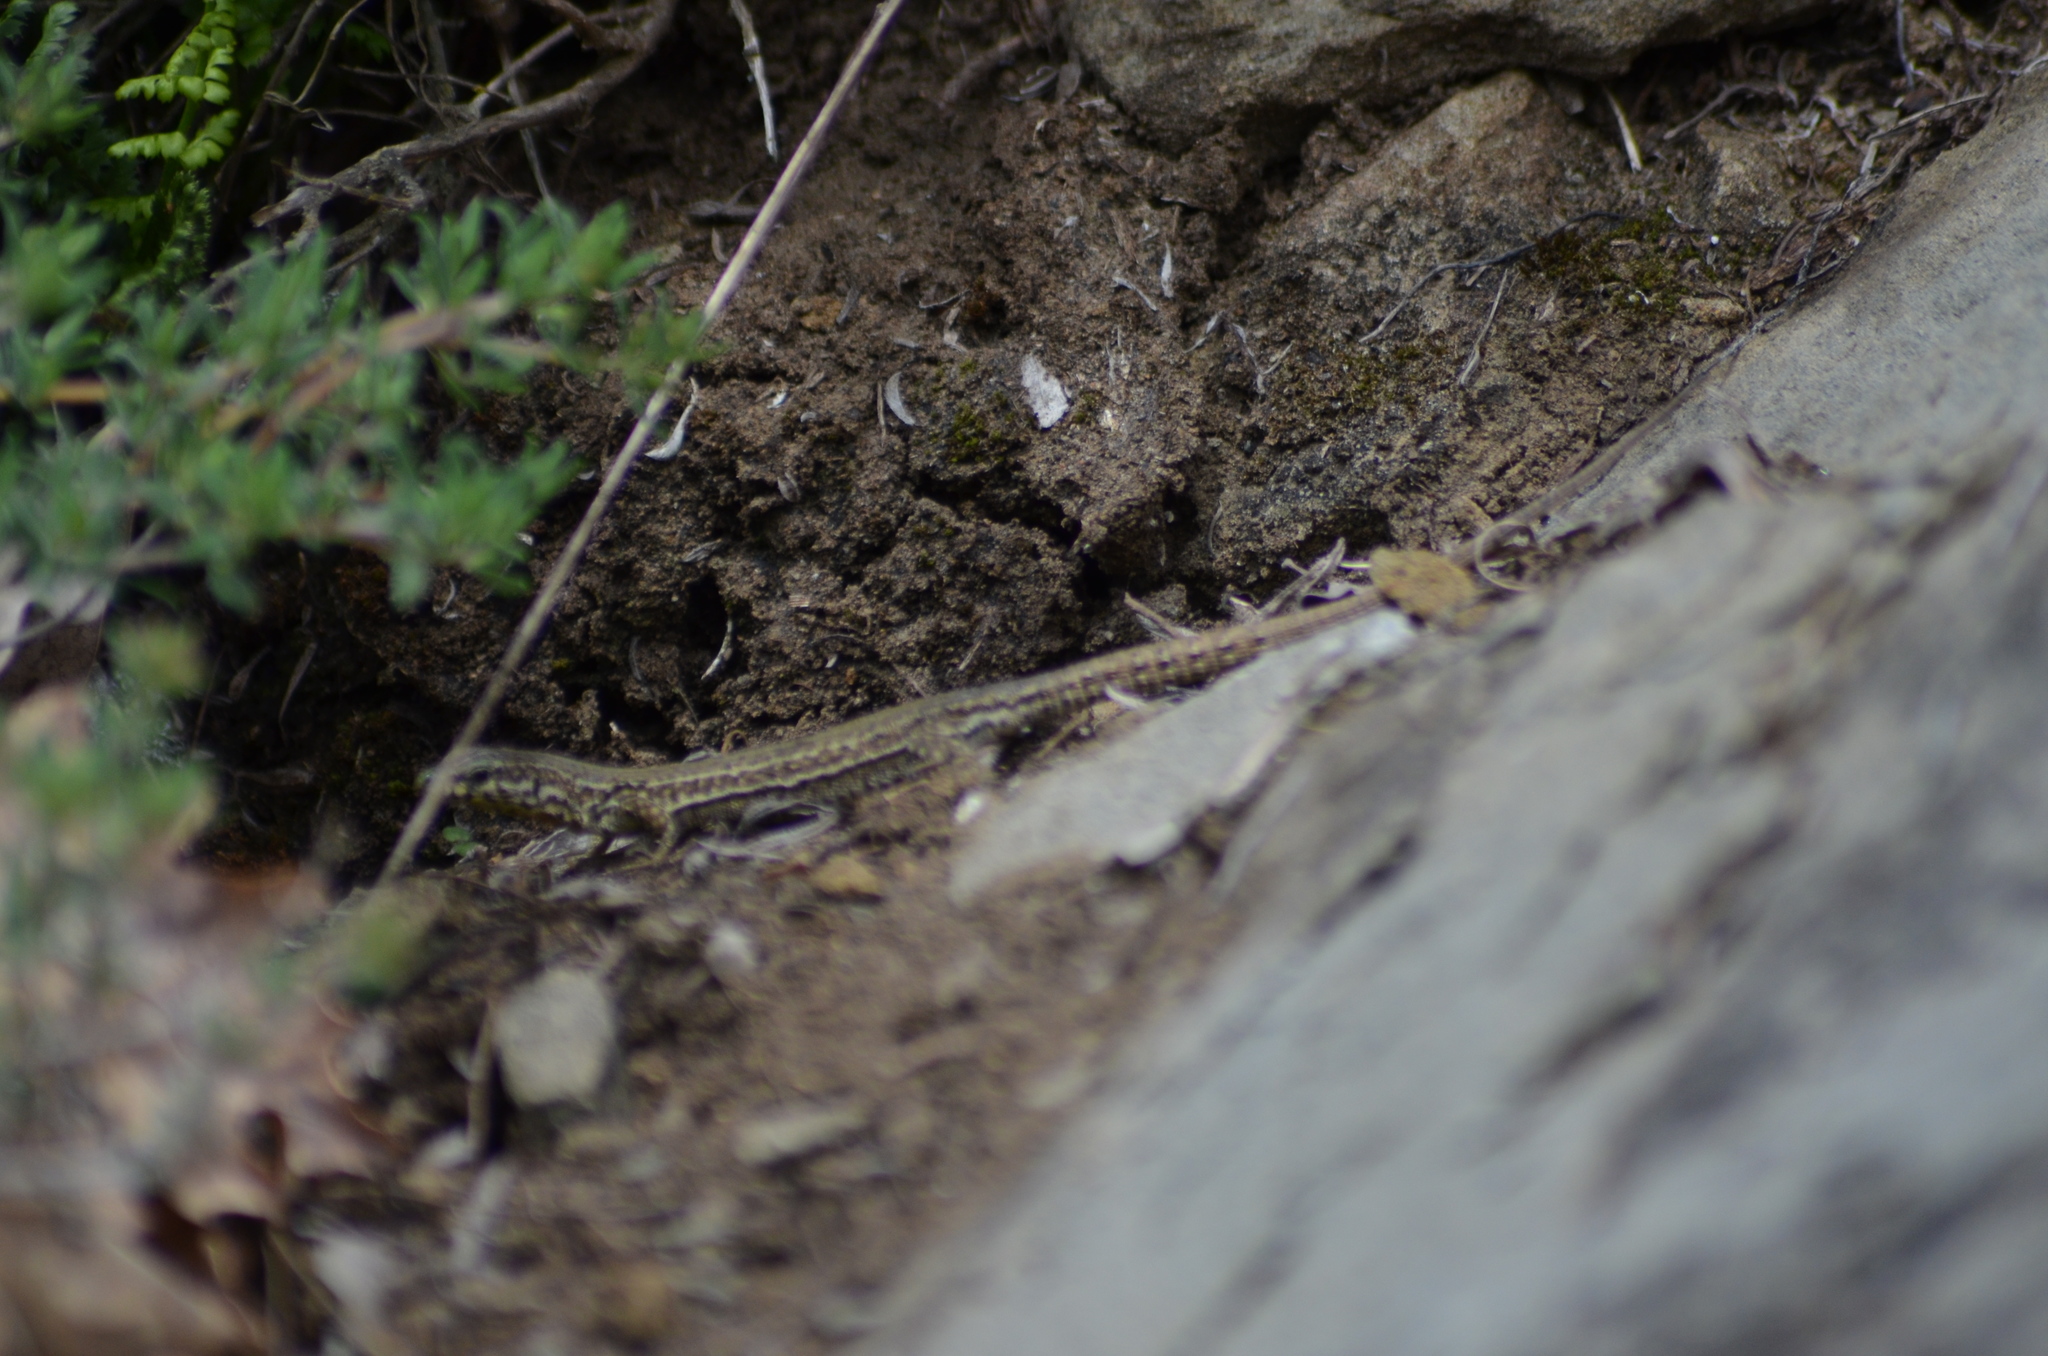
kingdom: Animalia
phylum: Chordata
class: Squamata
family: Lacertidae
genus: Podarcis
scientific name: Podarcis liolepis
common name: Catalonian wall lizard
